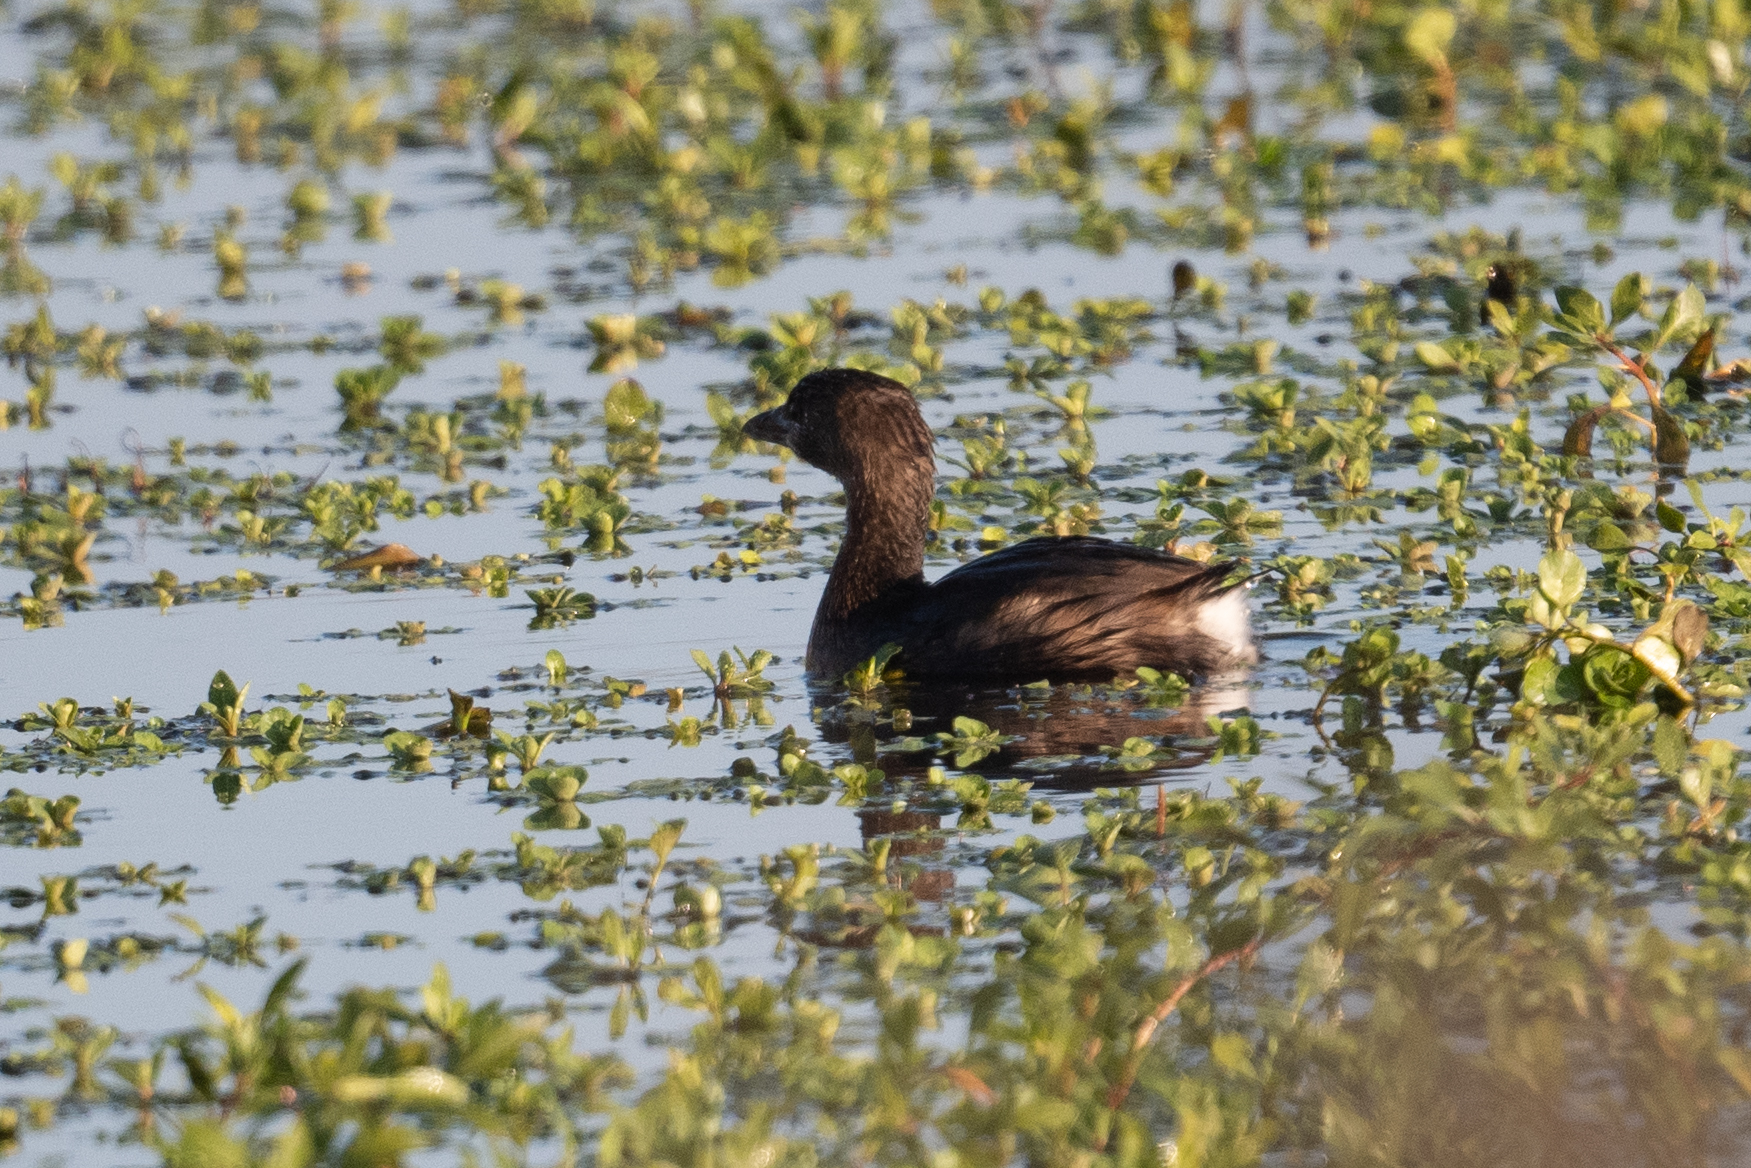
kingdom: Animalia
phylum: Chordata
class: Aves
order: Podicipediformes
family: Podicipedidae
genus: Podilymbus
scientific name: Podilymbus podiceps
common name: Pied-billed grebe
